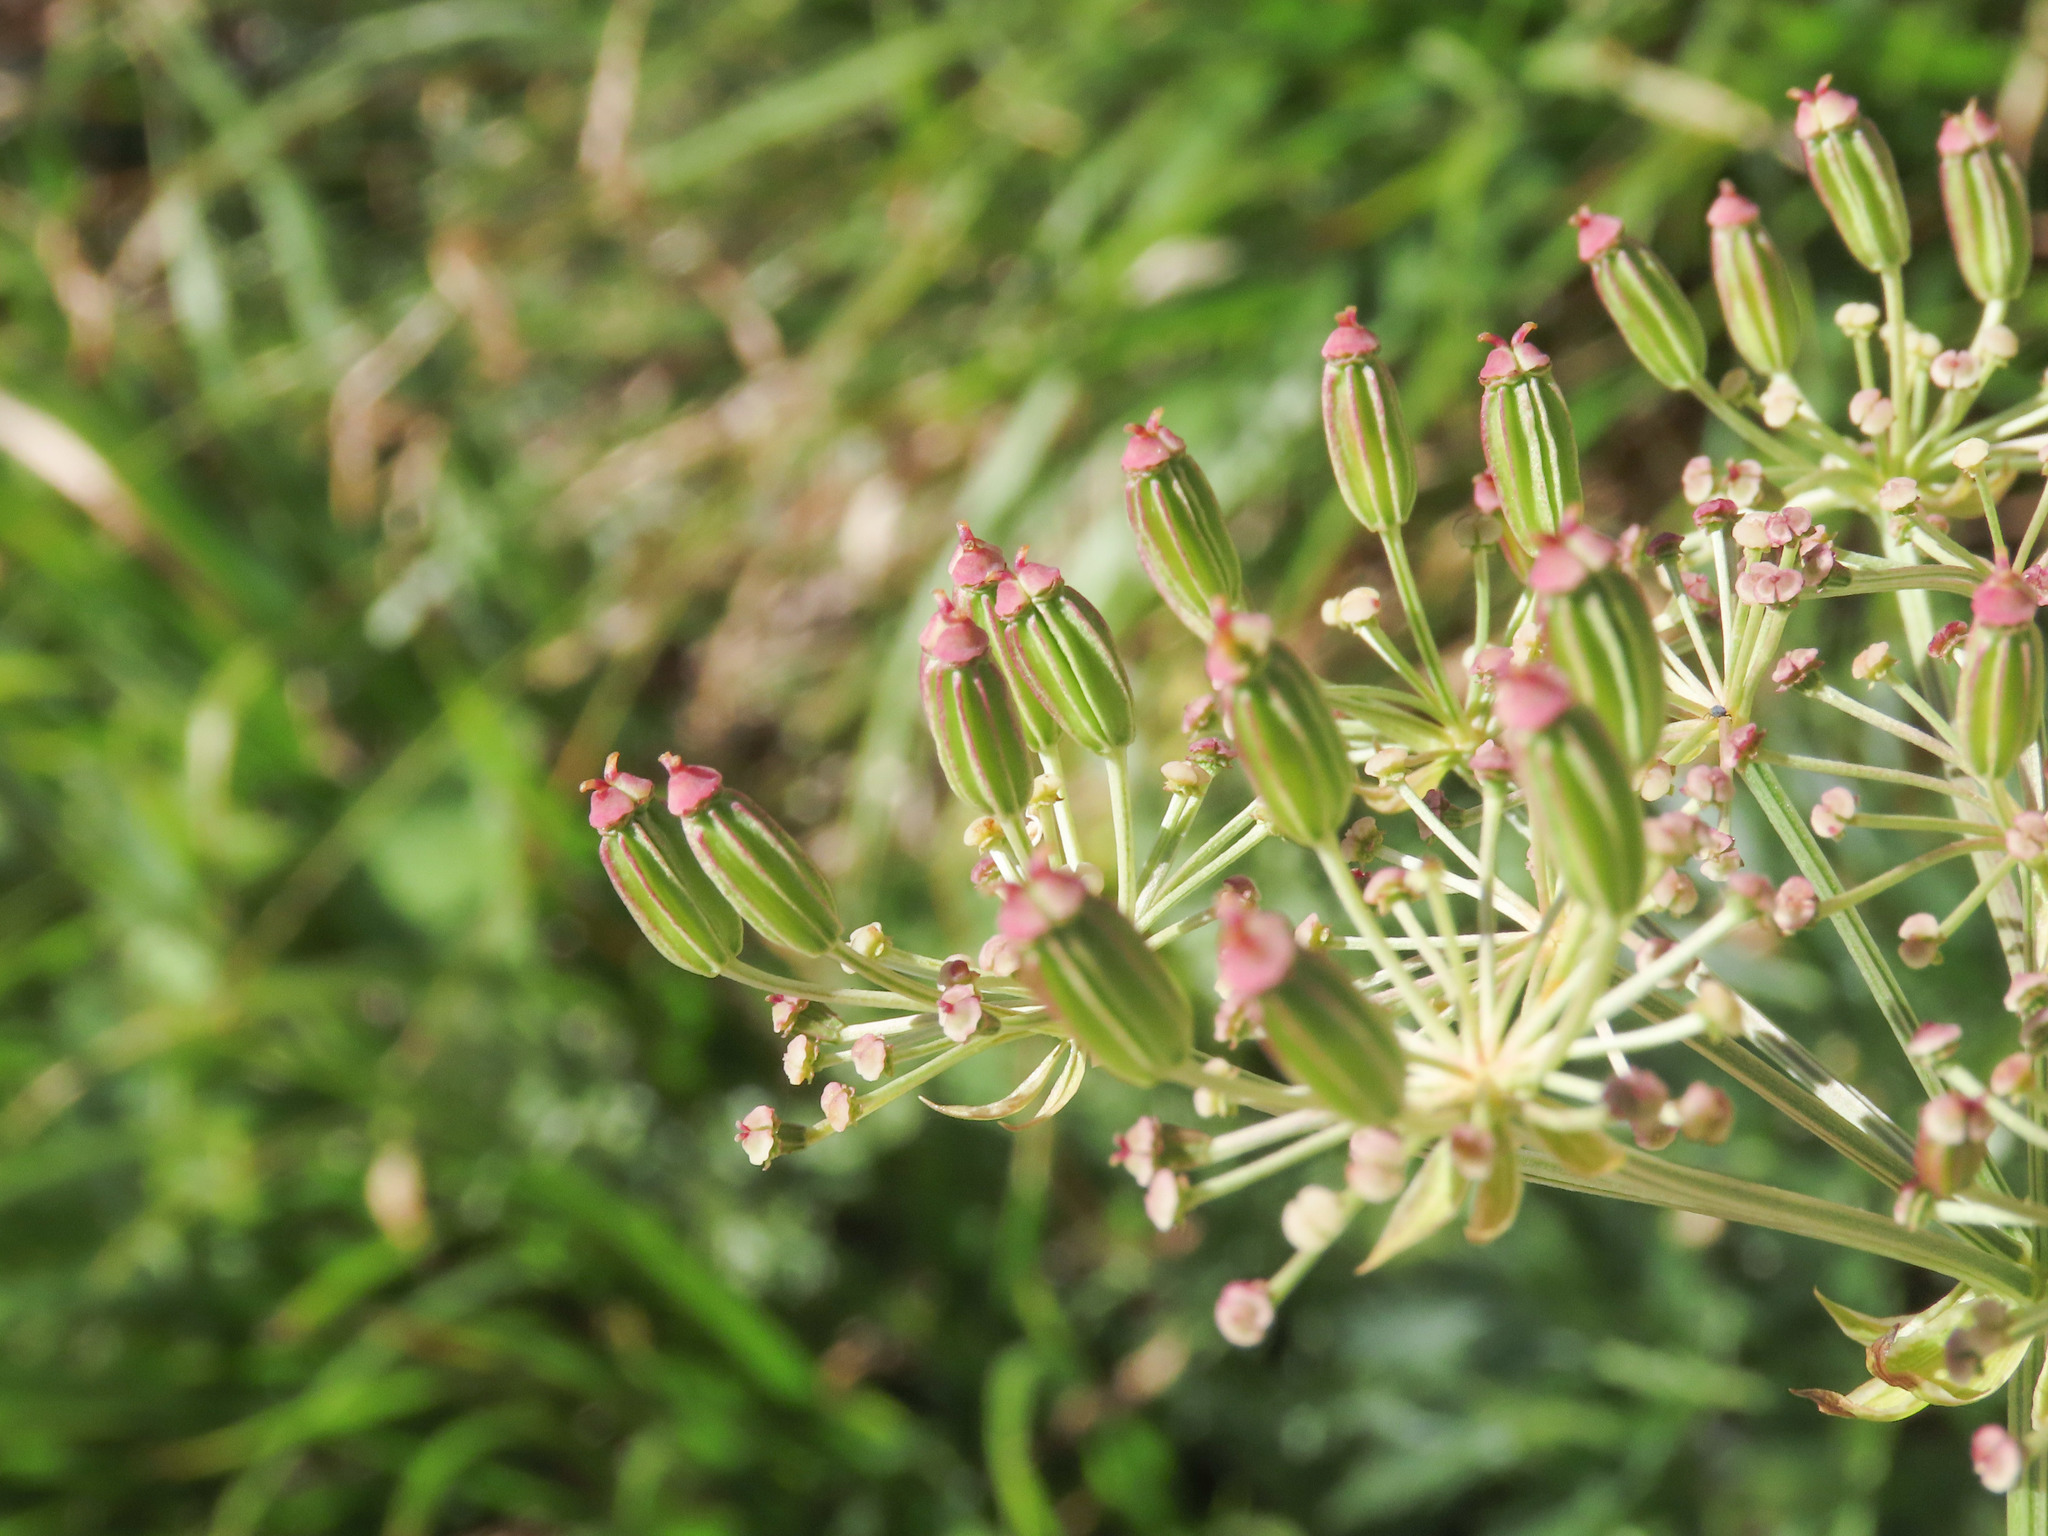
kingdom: Plantae
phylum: Tracheophyta
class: Magnoliopsida
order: Apiales
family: Apiaceae
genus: Grafia
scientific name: Grafia golaka
